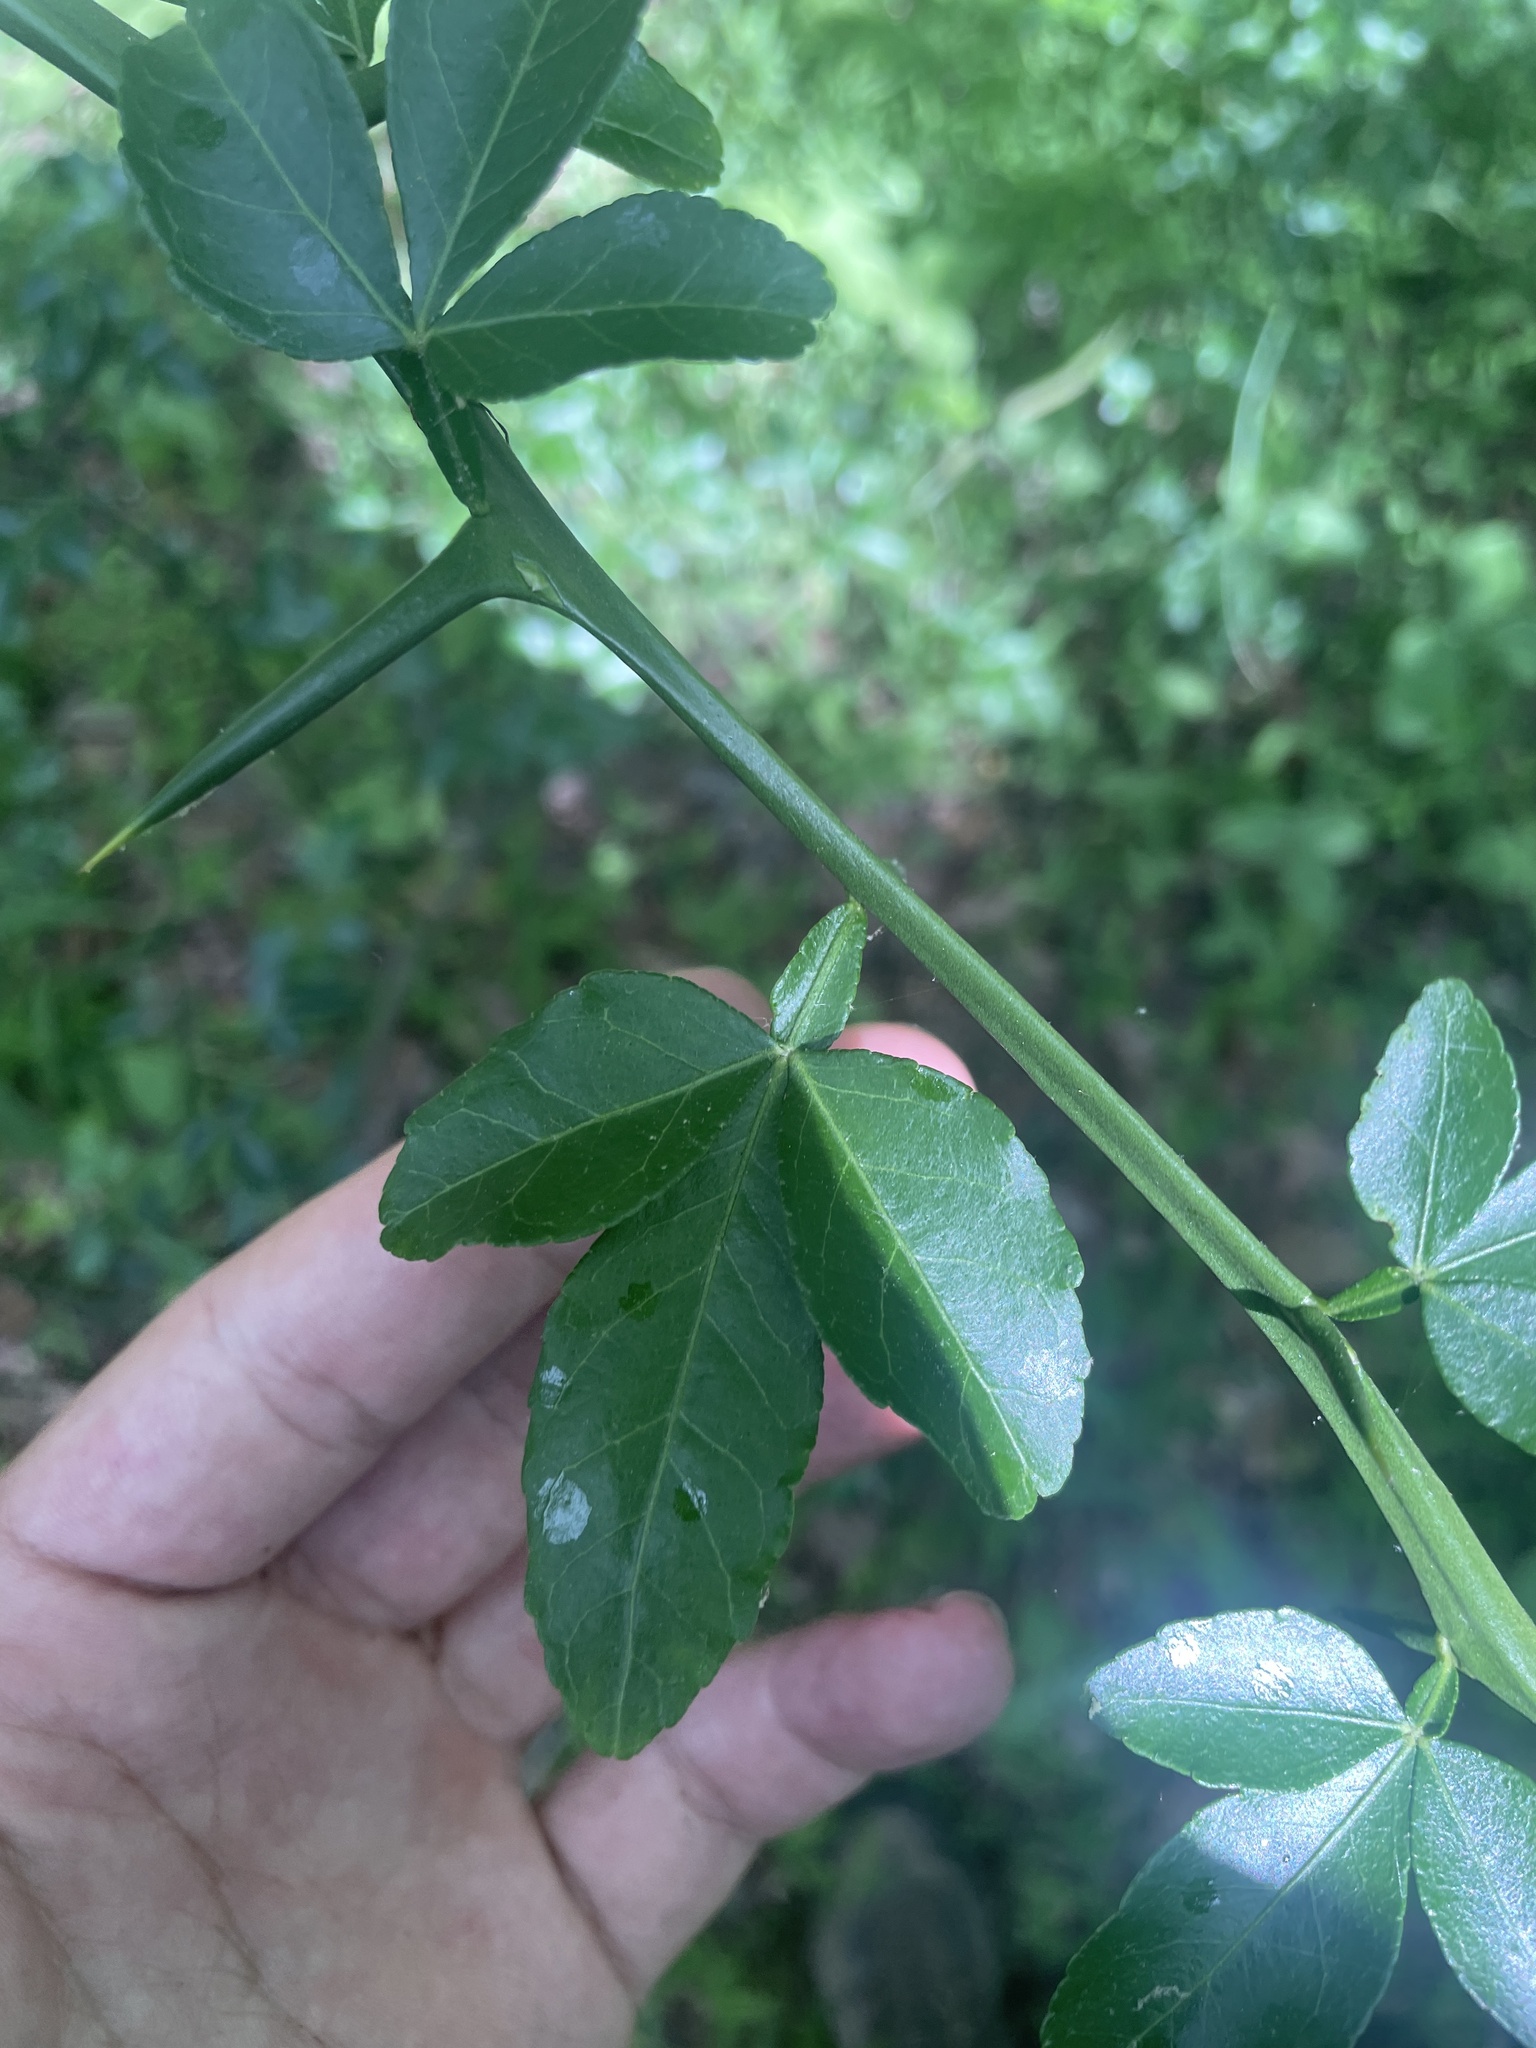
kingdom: Plantae
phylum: Tracheophyta
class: Magnoliopsida
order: Sapindales
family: Rutaceae
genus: Citrus
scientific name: Citrus trifoliata
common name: Japanese bitter-orange
